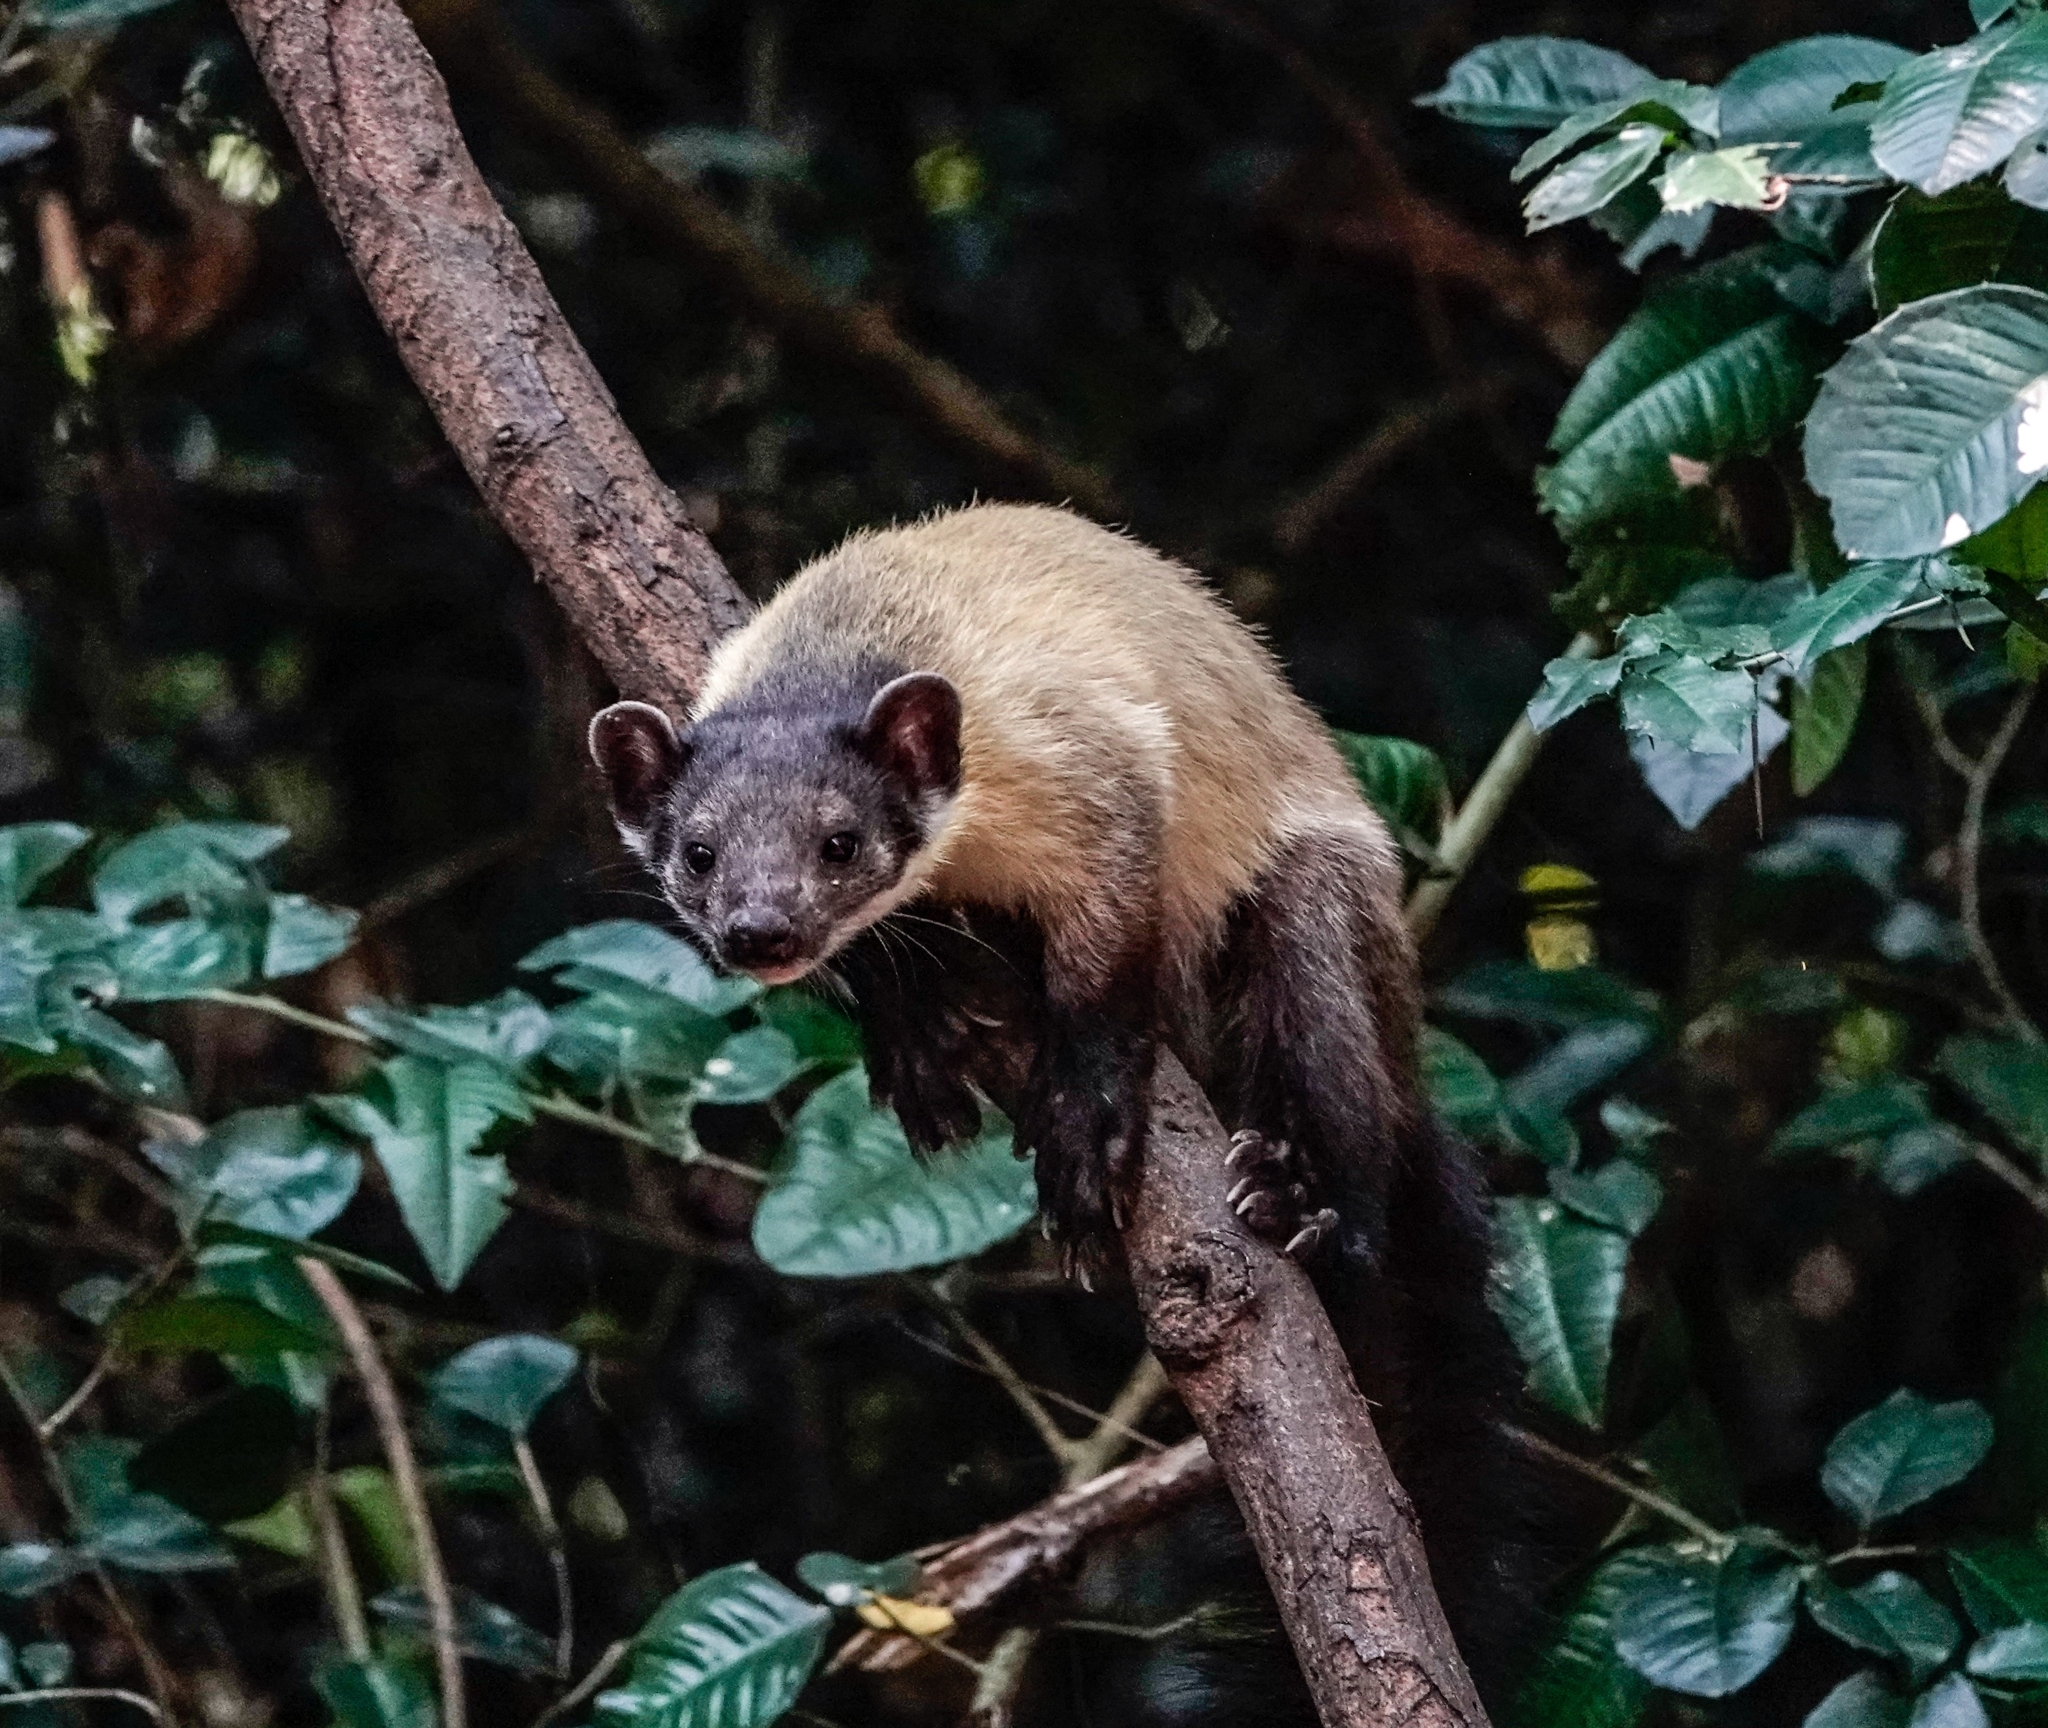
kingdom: Animalia
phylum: Chordata
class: Mammalia
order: Carnivora
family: Mustelidae
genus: Martes
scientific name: Martes flavigula
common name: Yellow-throated marten
